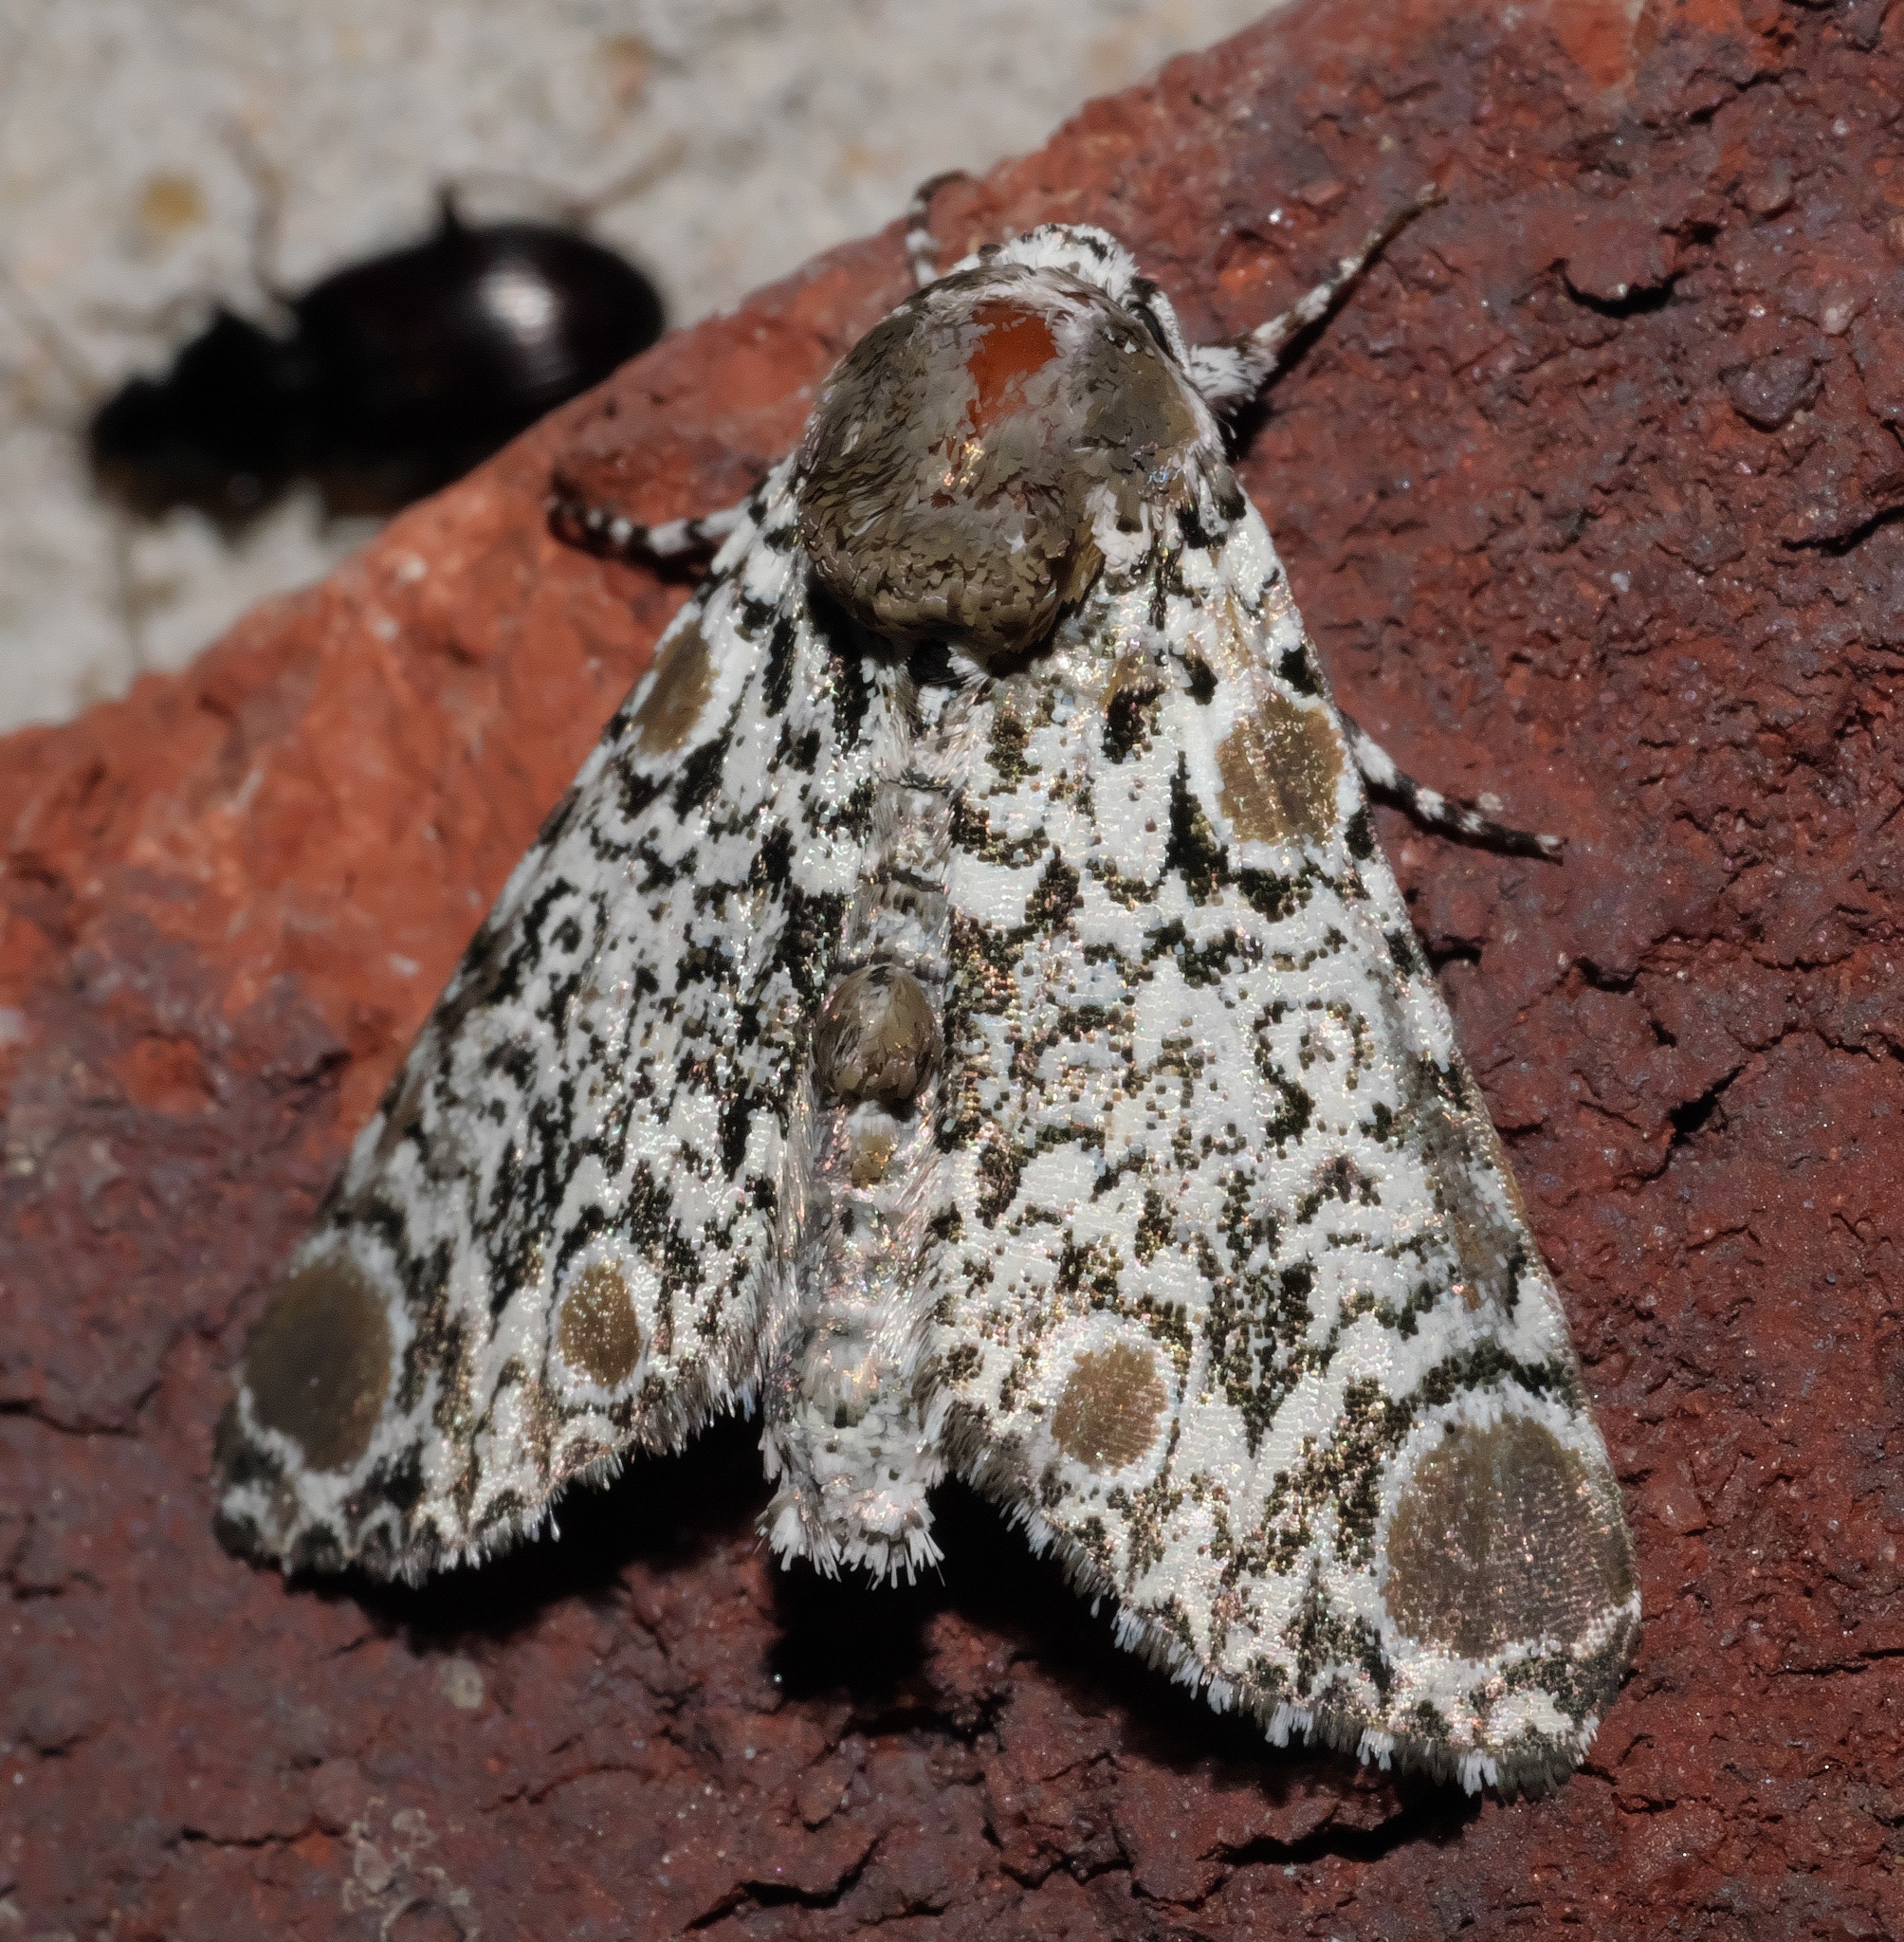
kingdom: Animalia
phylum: Arthropoda
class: Insecta
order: Lepidoptera
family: Noctuidae
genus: Harrisimemna
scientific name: Harrisimemna trisignata
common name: Harris threespot
